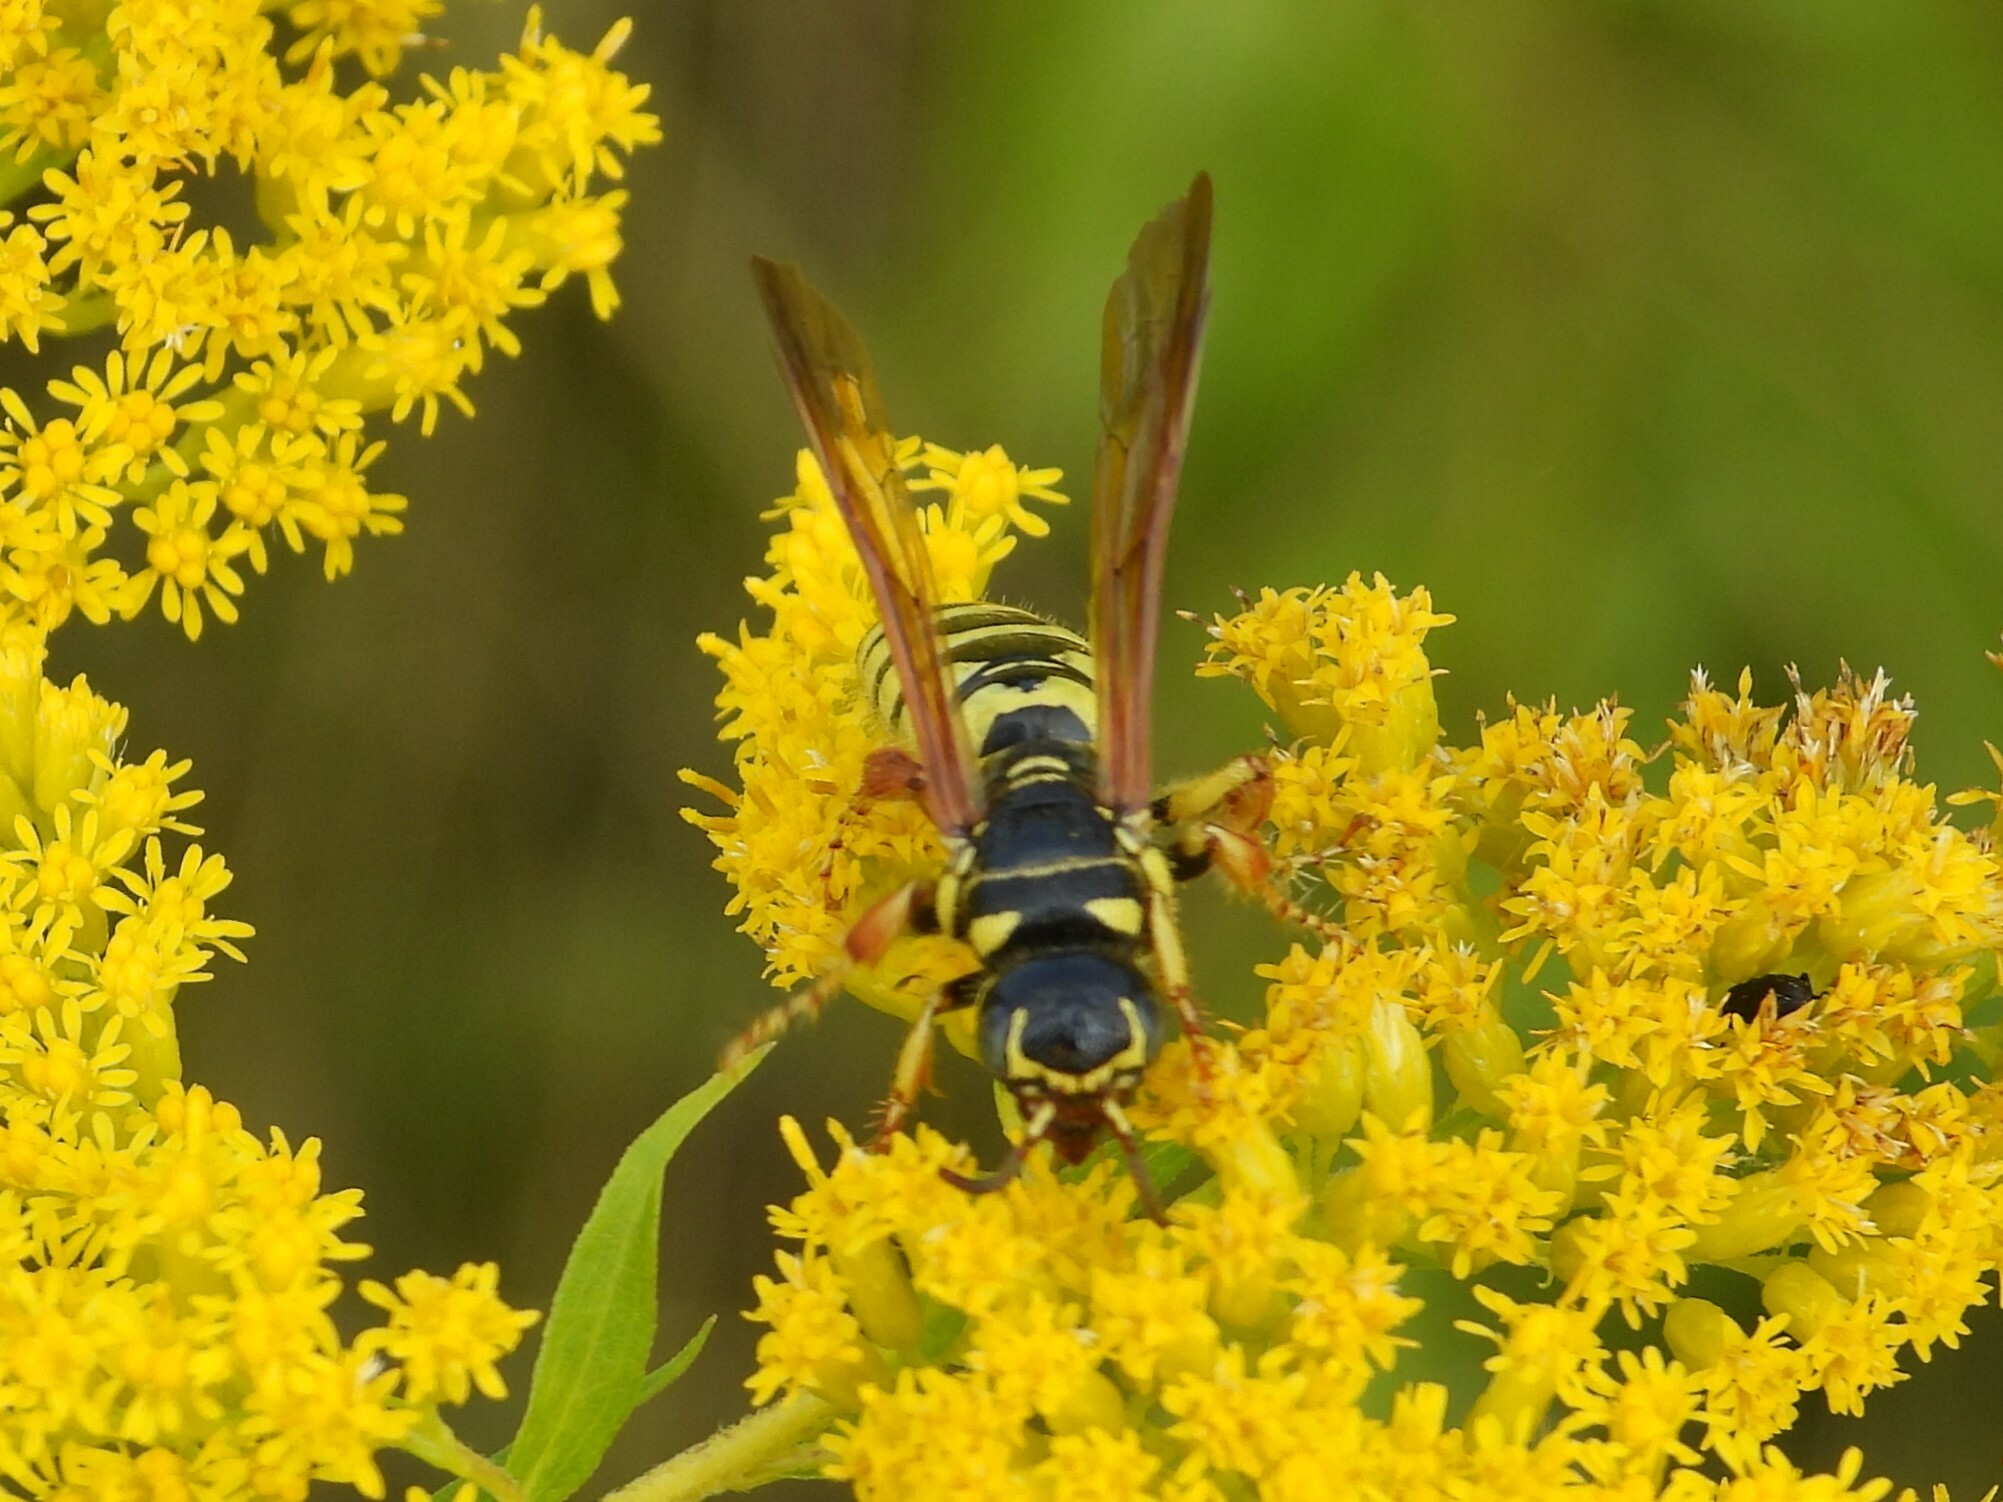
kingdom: Animalia
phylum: Arthropoda
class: Insecta
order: Hymenoptera
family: Tiphiidae
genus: Myzinum
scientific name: Myzinum quinquecinctum
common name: Five-banded thynnid wasp
